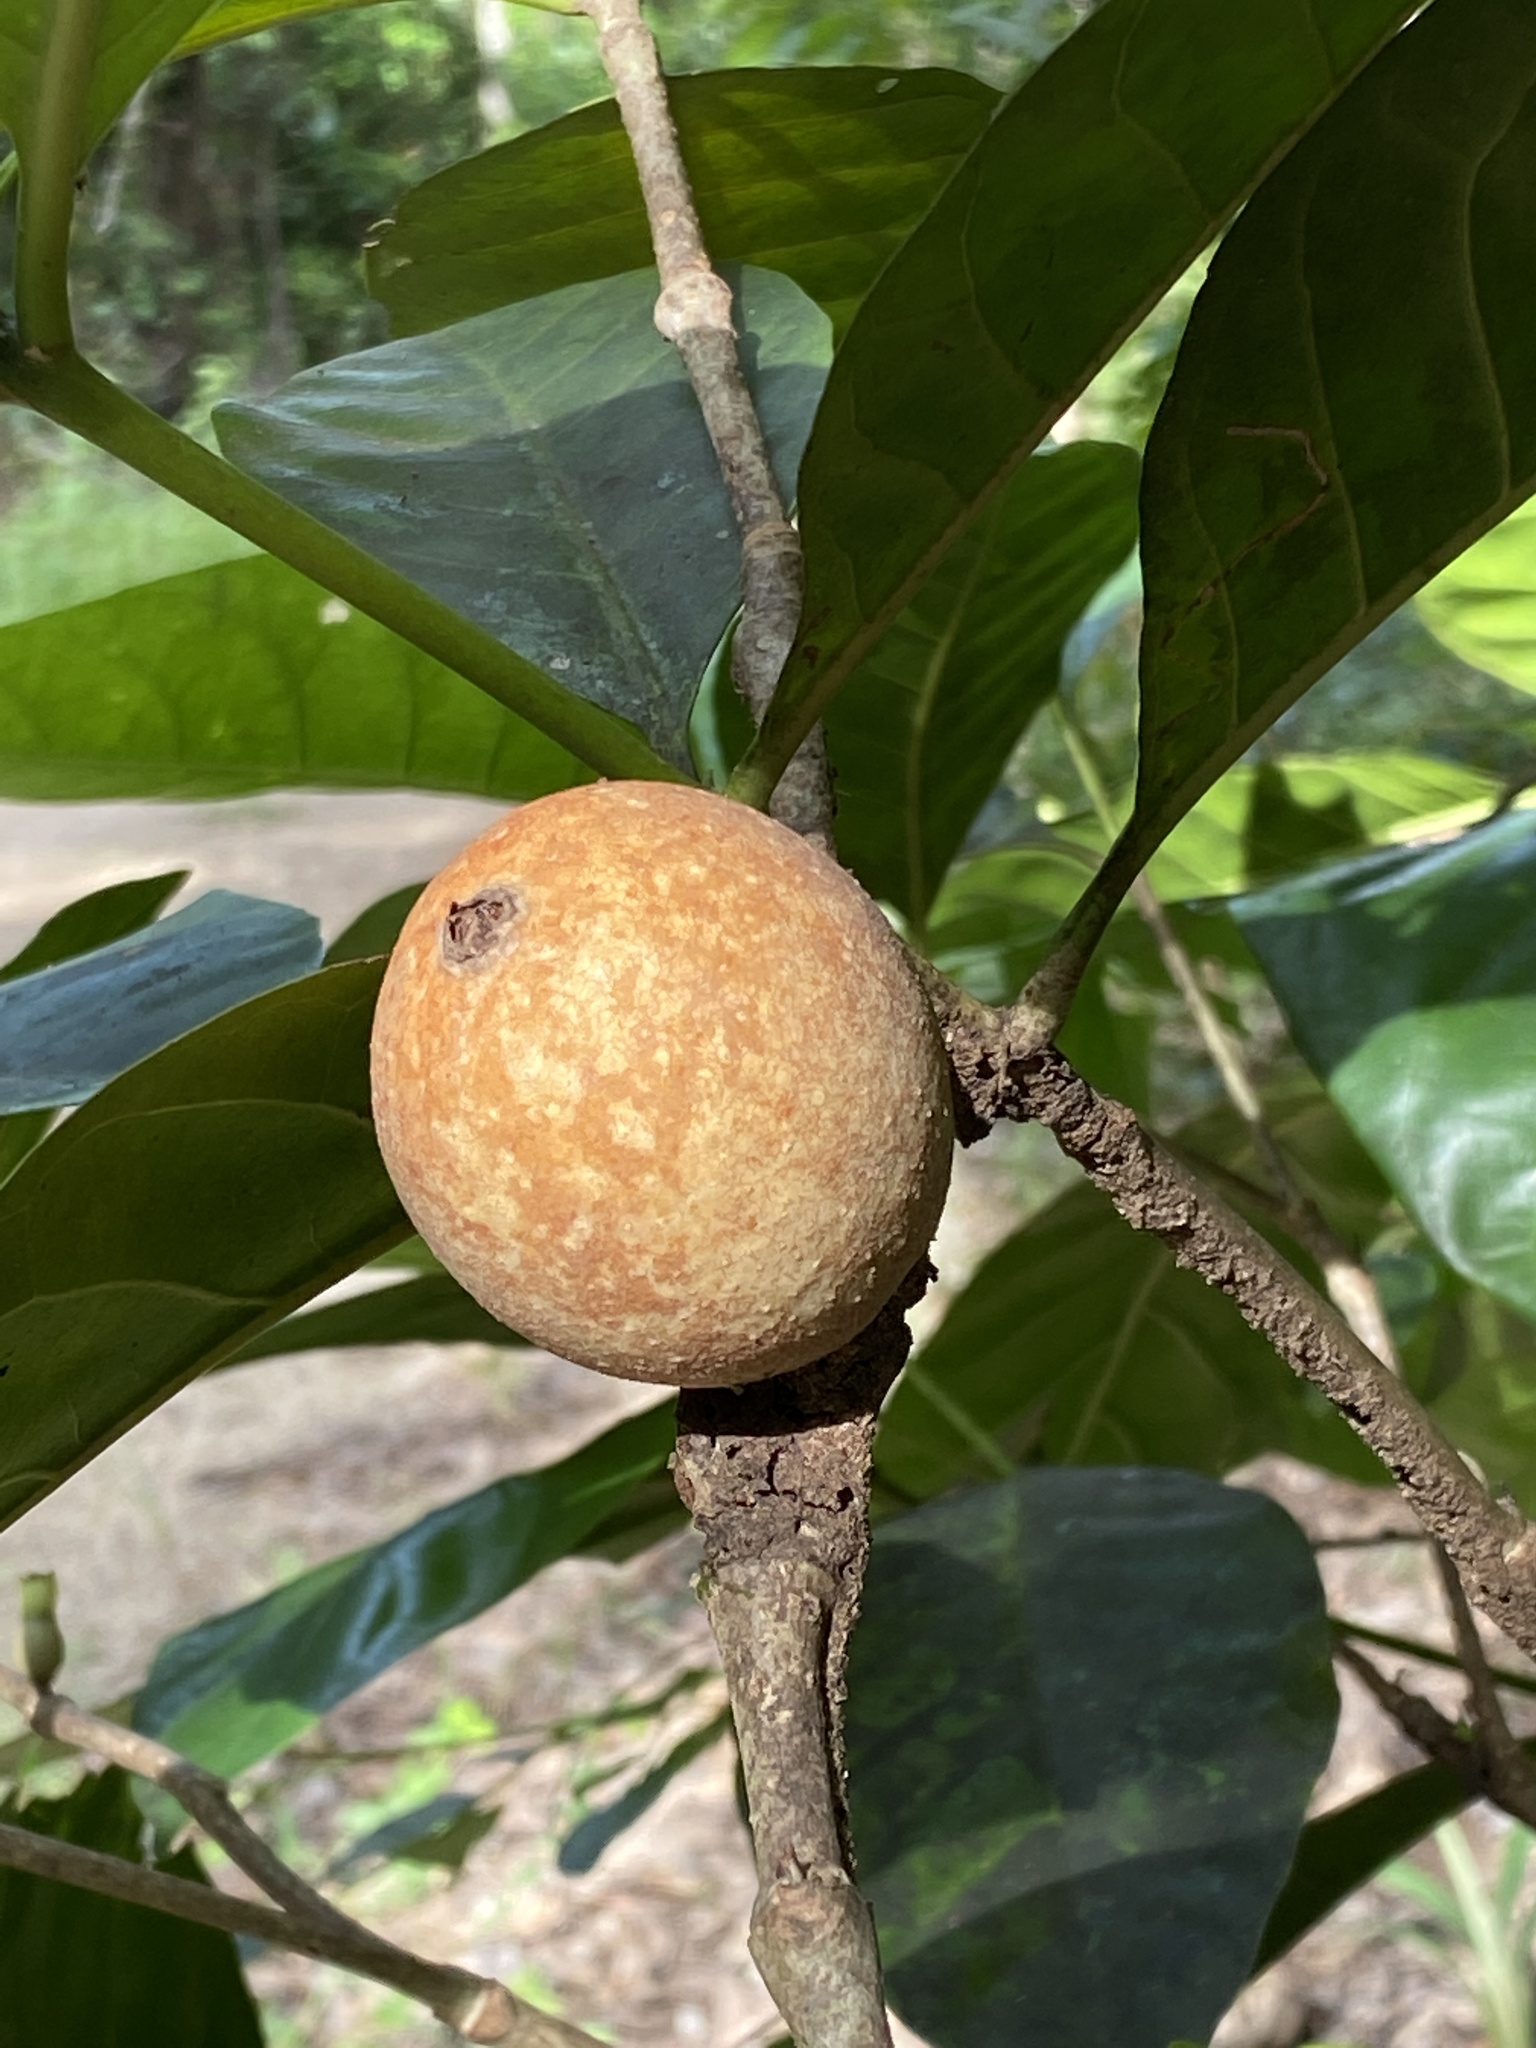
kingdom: Plantae
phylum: Tracheophyta
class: Magnoliopsida
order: Gentianales
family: Rubiaceae
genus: Atractocarpus
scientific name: Atractocarpus sessilis
